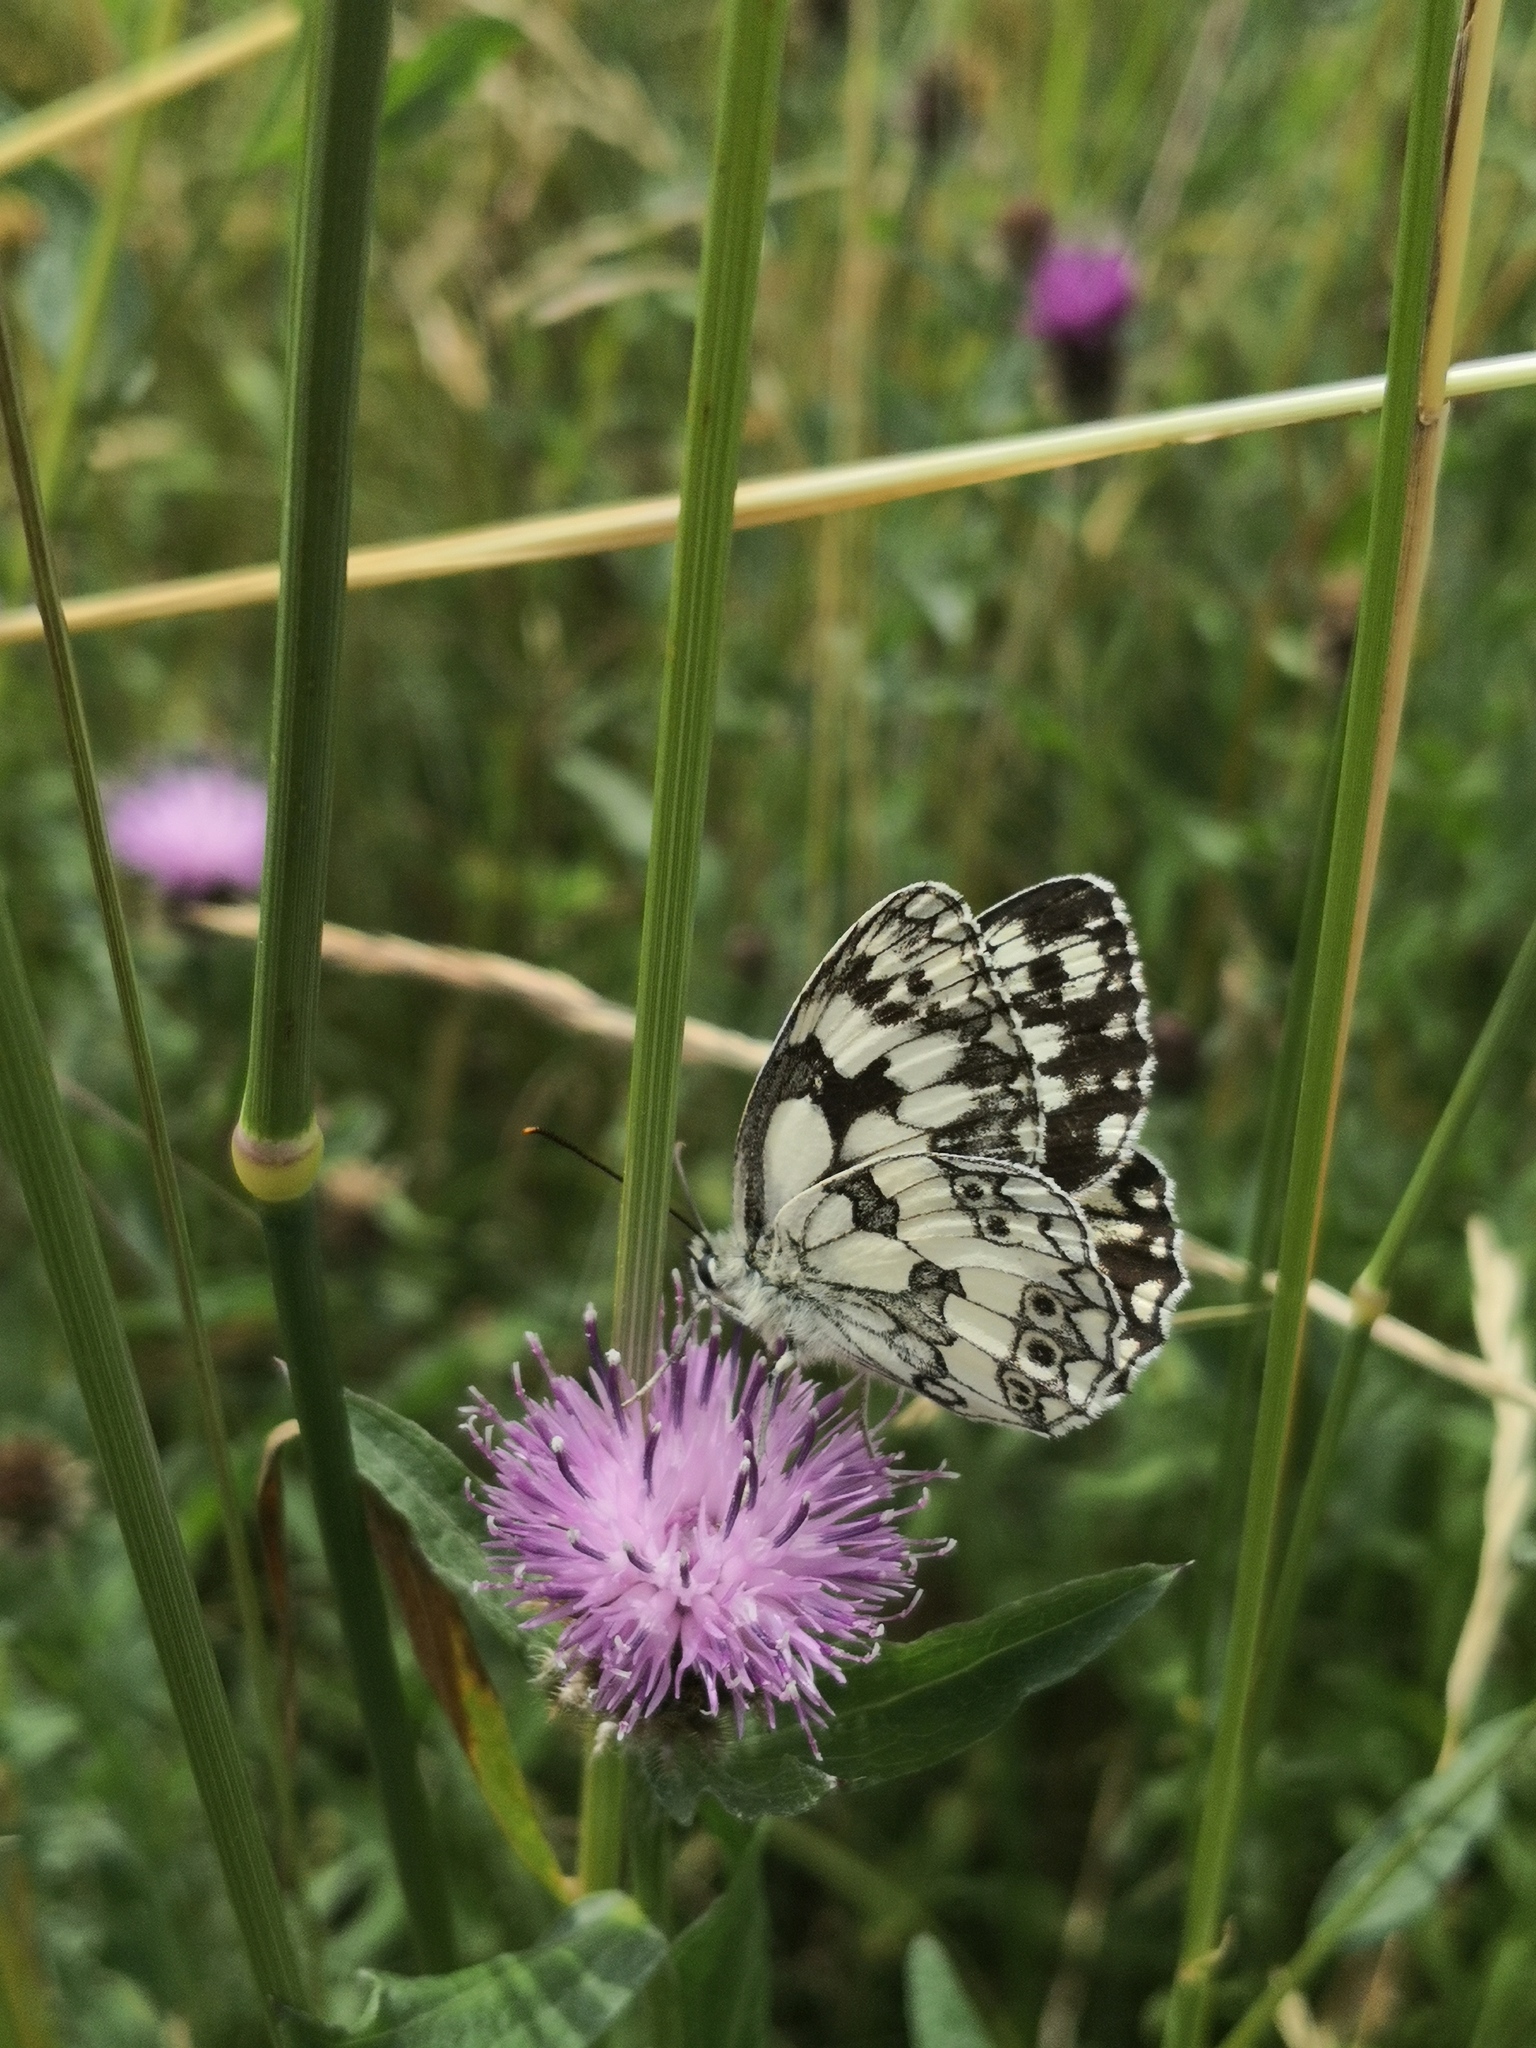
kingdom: Animalia
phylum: Arthropoda
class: Insecta
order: Lepidoptera
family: Nymphalidae
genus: Melanargia
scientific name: Melanargia galathea
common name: Marbled white
